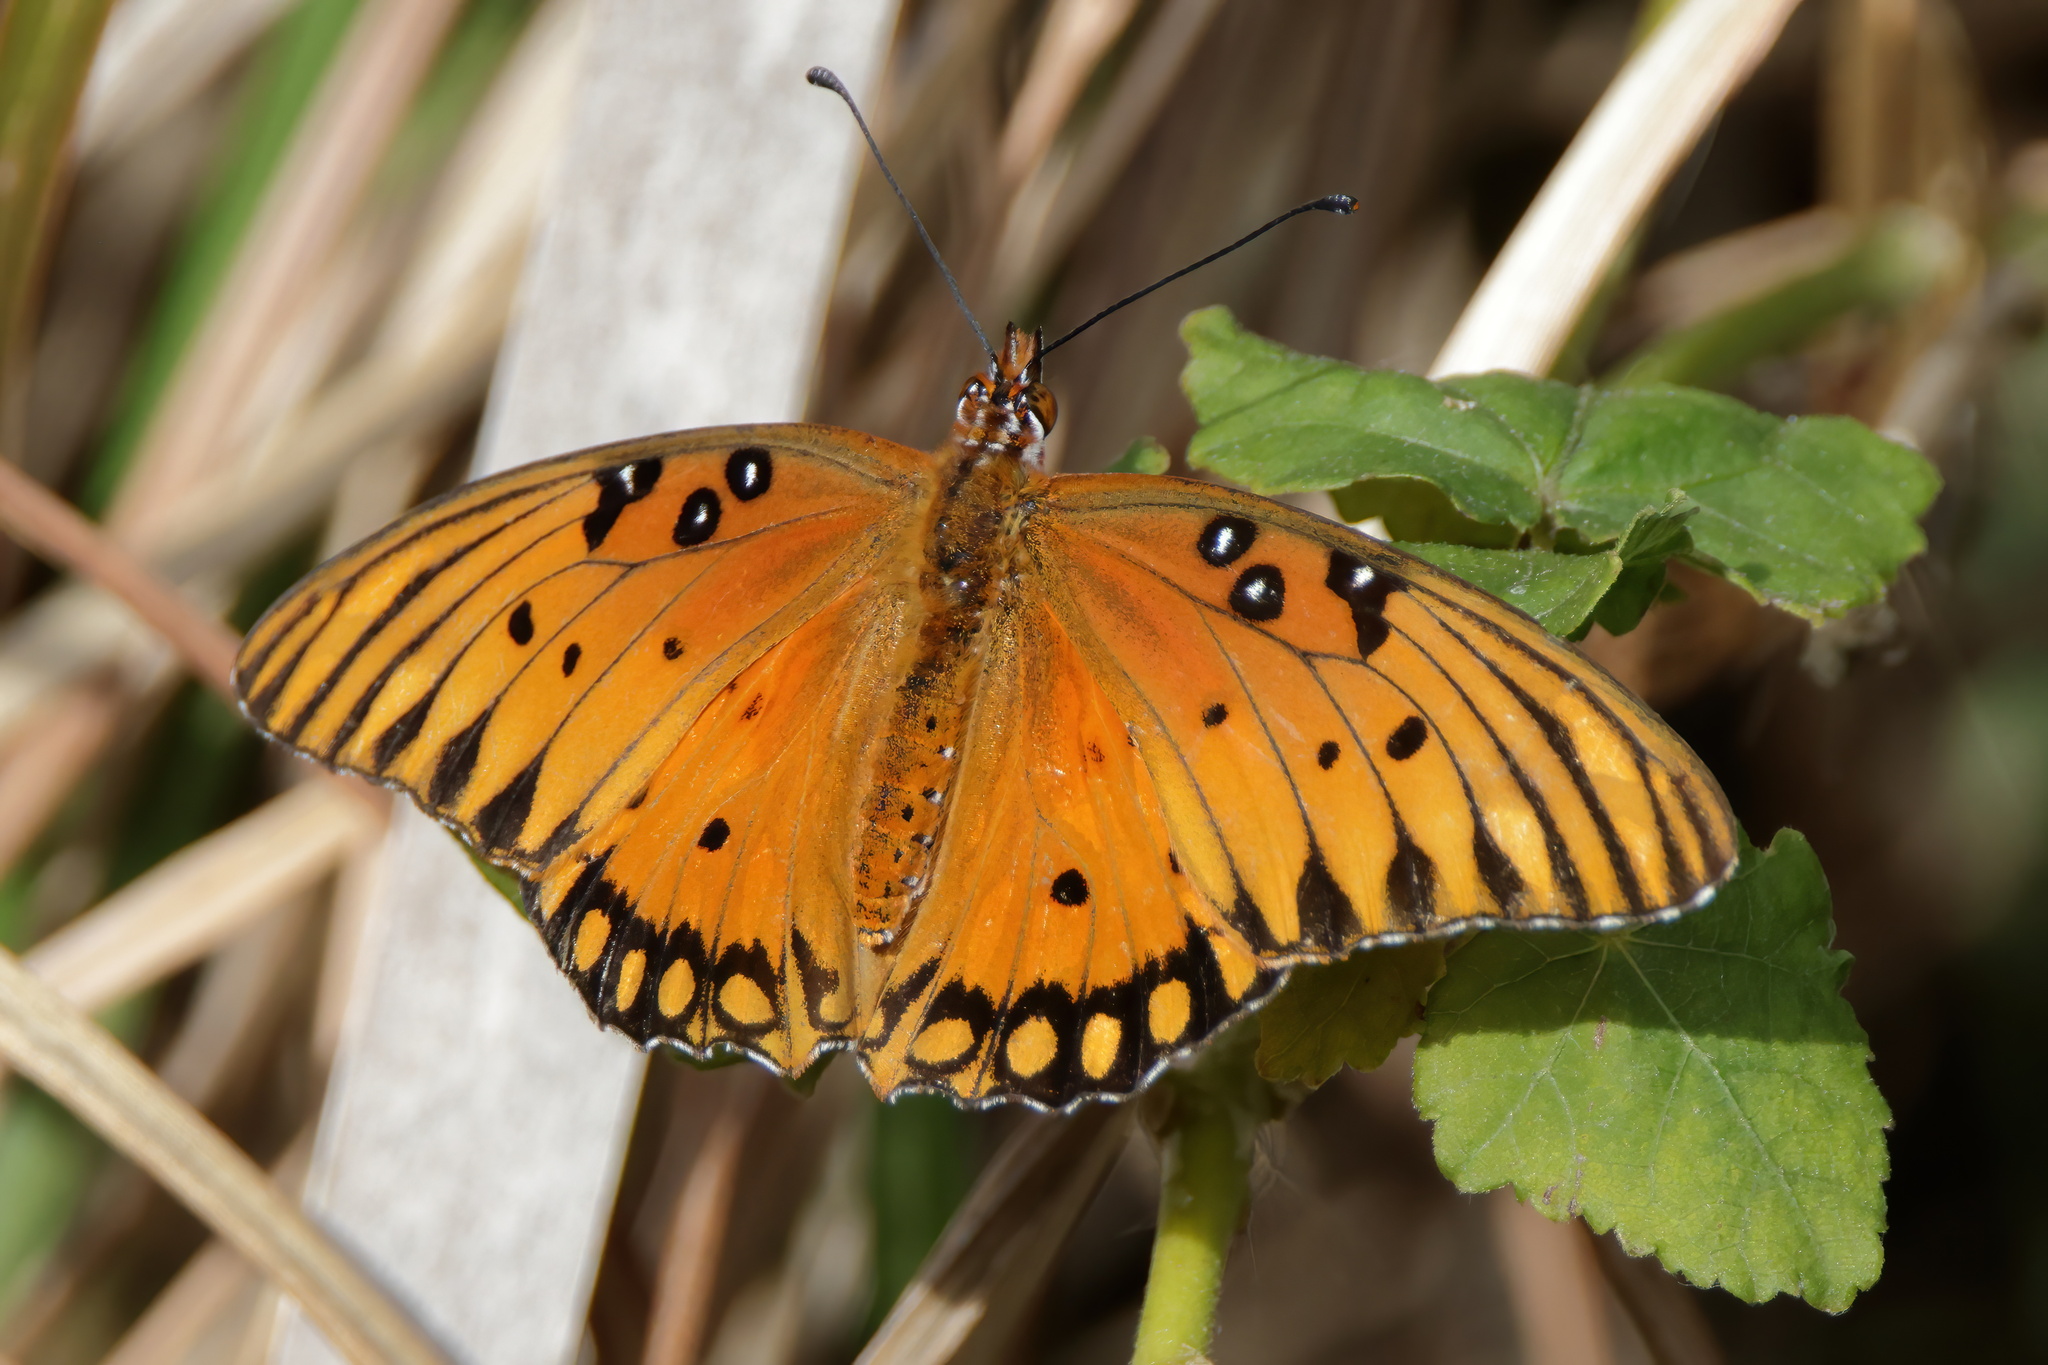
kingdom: Animalia
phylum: Arthropoda
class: Insecta
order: Lepidoptera
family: Nymphalidae
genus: Dione
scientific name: Dione vanillae
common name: Gulf fritillary
